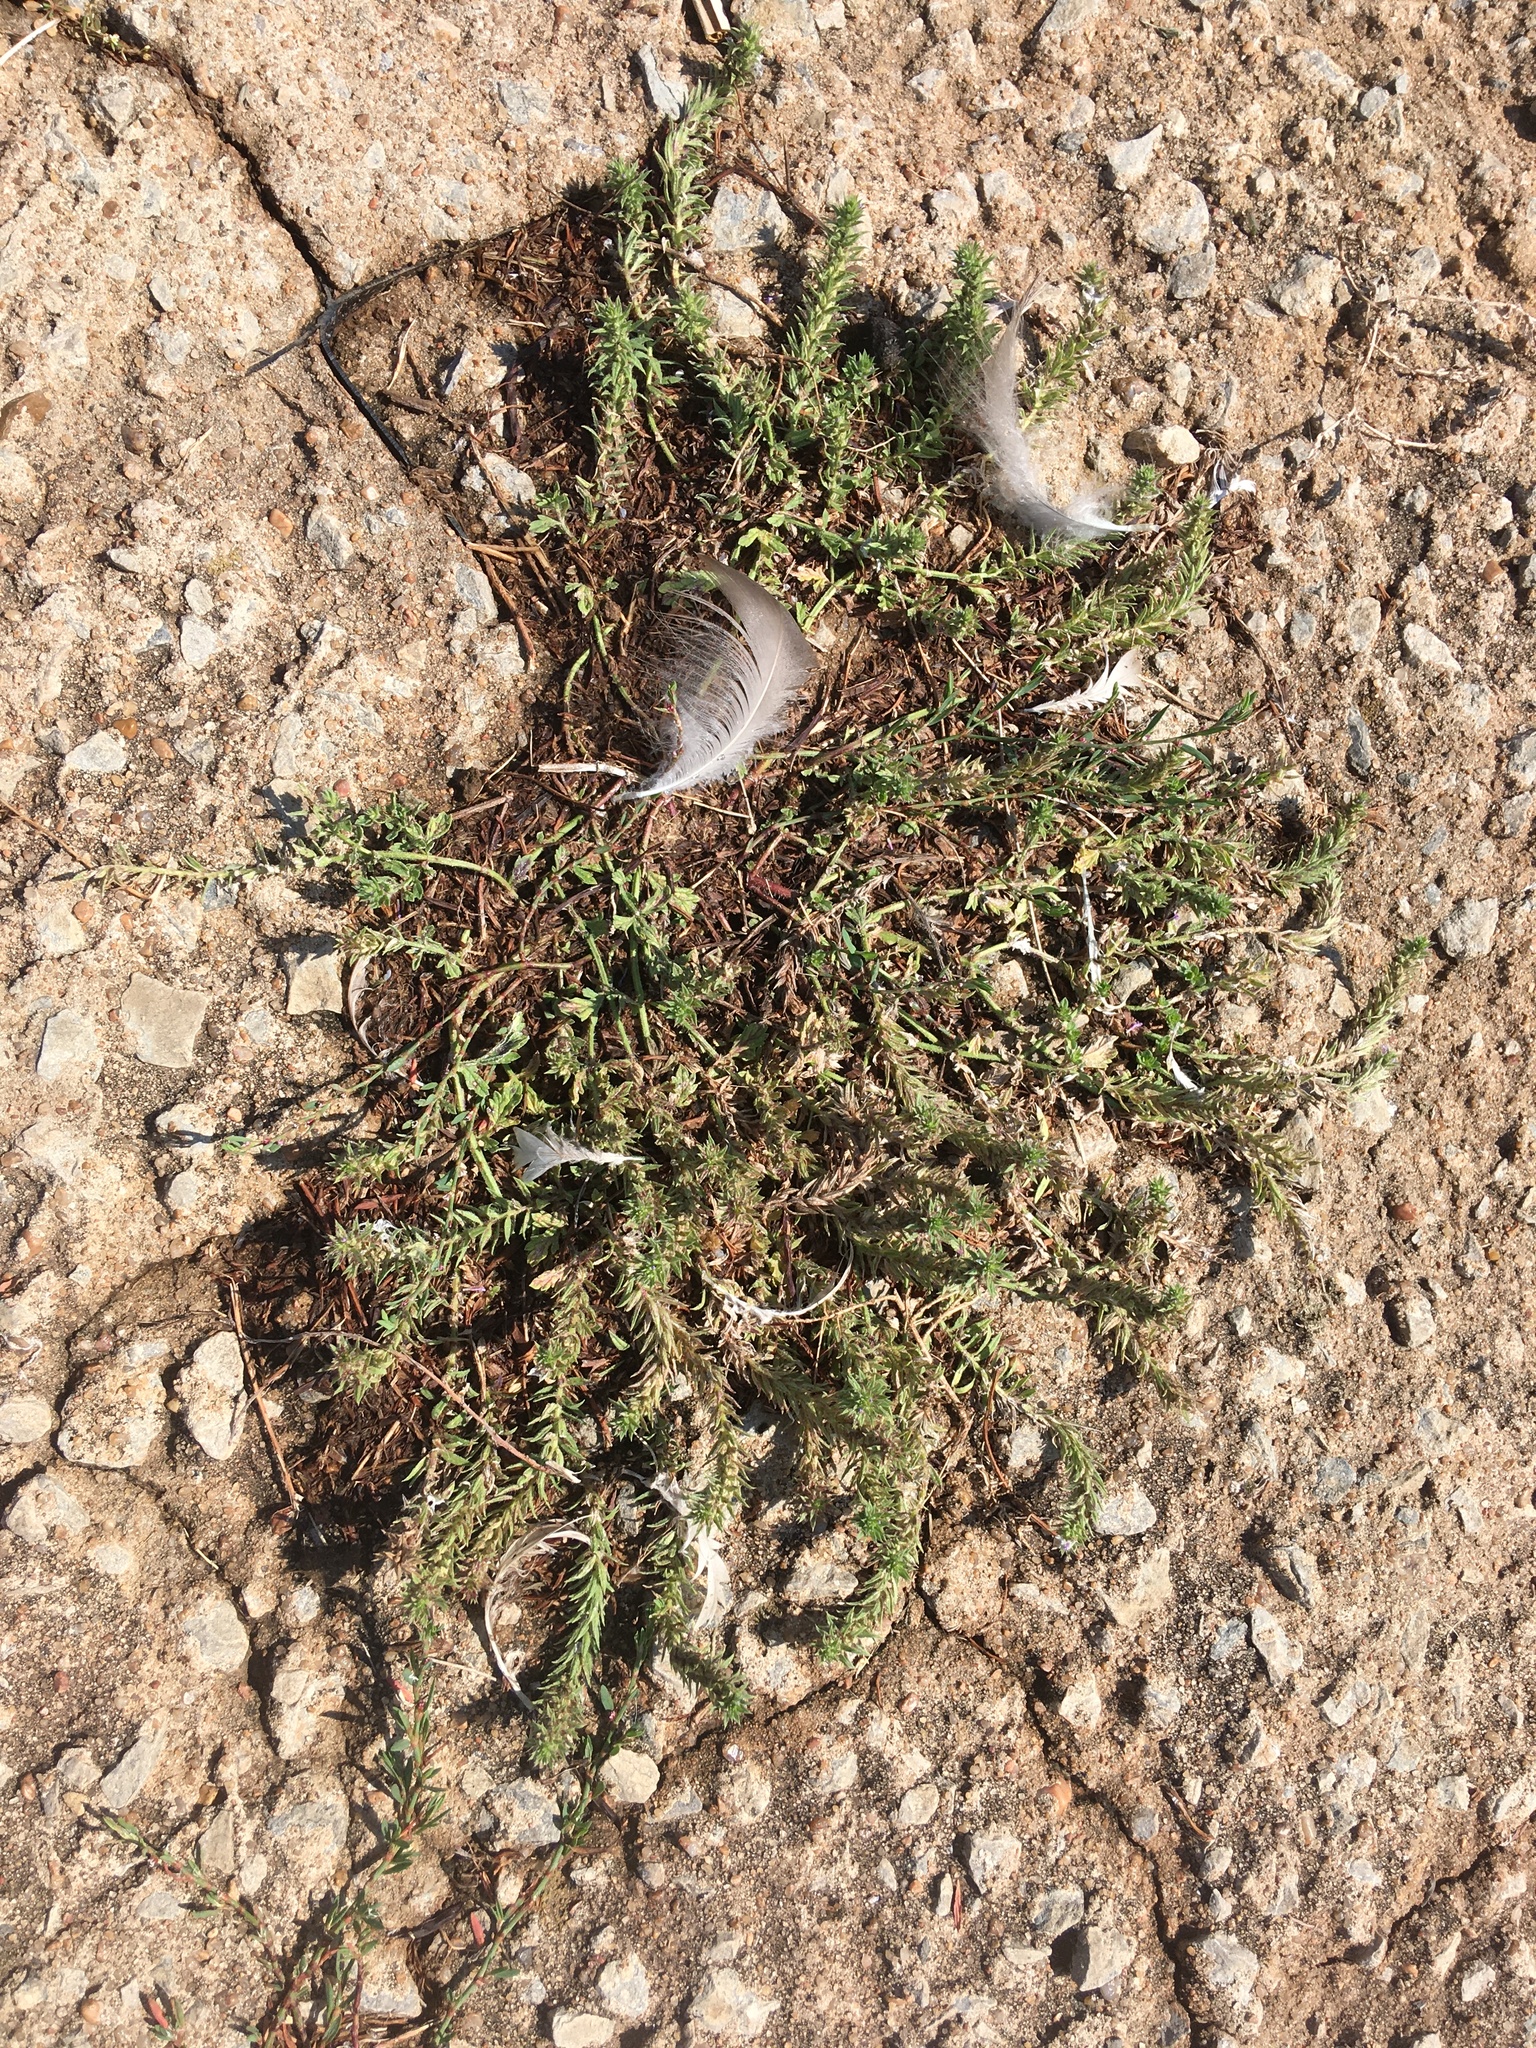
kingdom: Plantae
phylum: Tracheophyta
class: Magnoliopsida
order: Lamiales
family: Verbenaceae
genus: Verbena
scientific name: Verbena bracteata
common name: Bracted vervain
